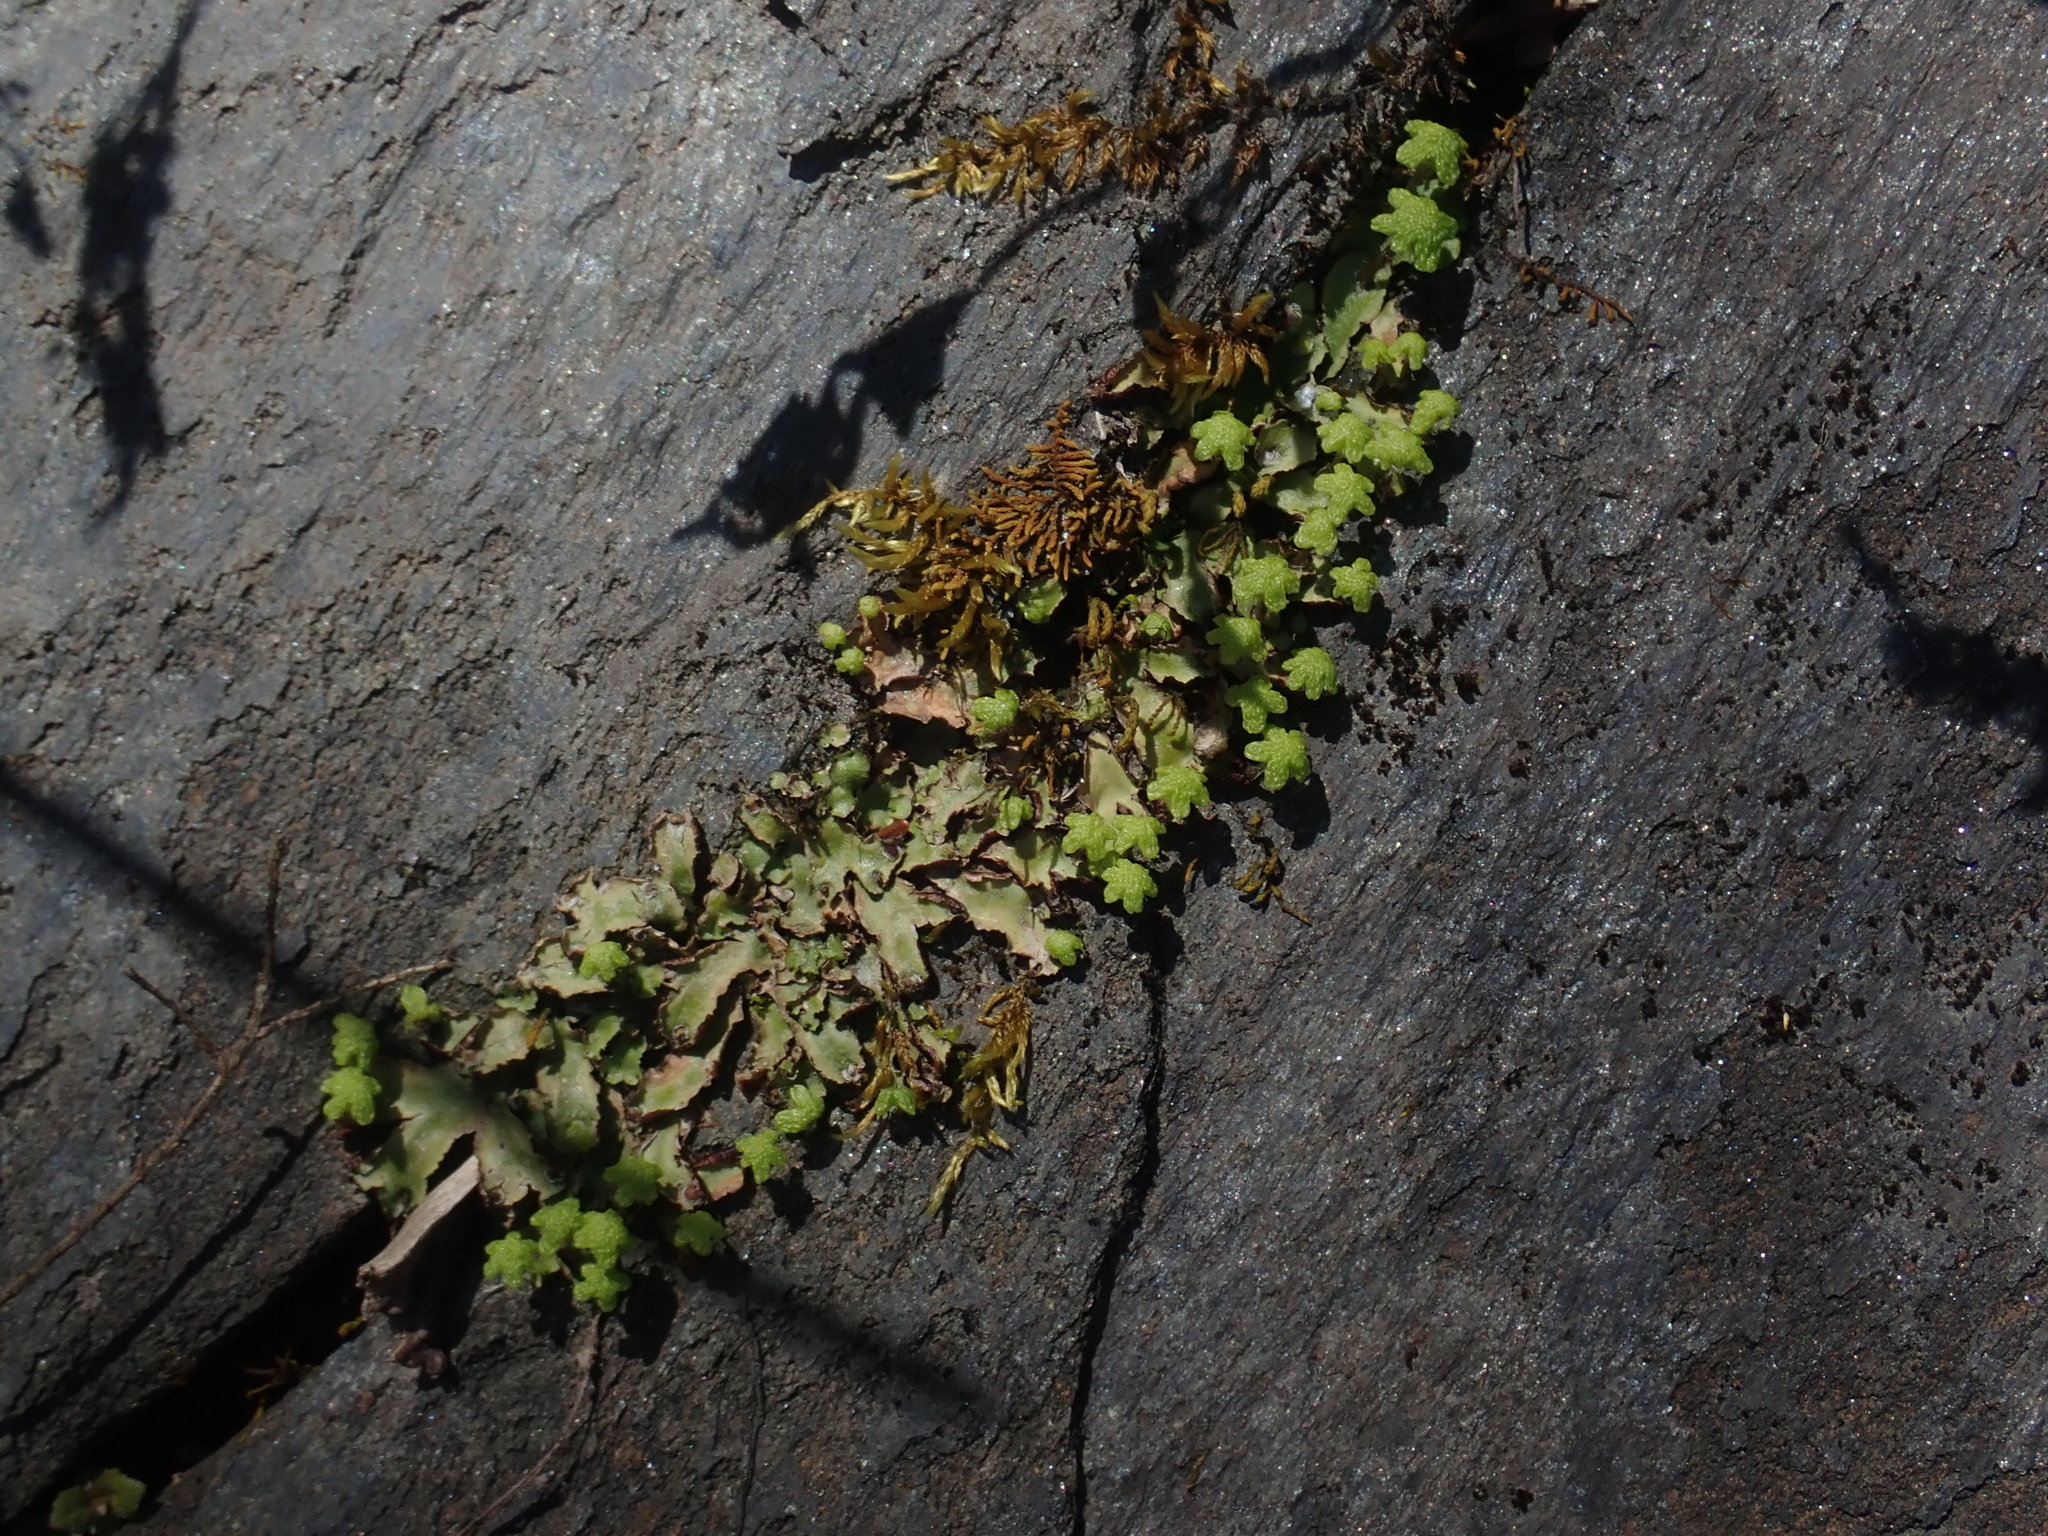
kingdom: Plantae
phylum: Marchantiophyta
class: Marchantiopsida
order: Marchantiales
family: Aytoniaceae
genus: Reboulia
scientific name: Reboulia hemisphaerica
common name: Purple-margined liverwort
